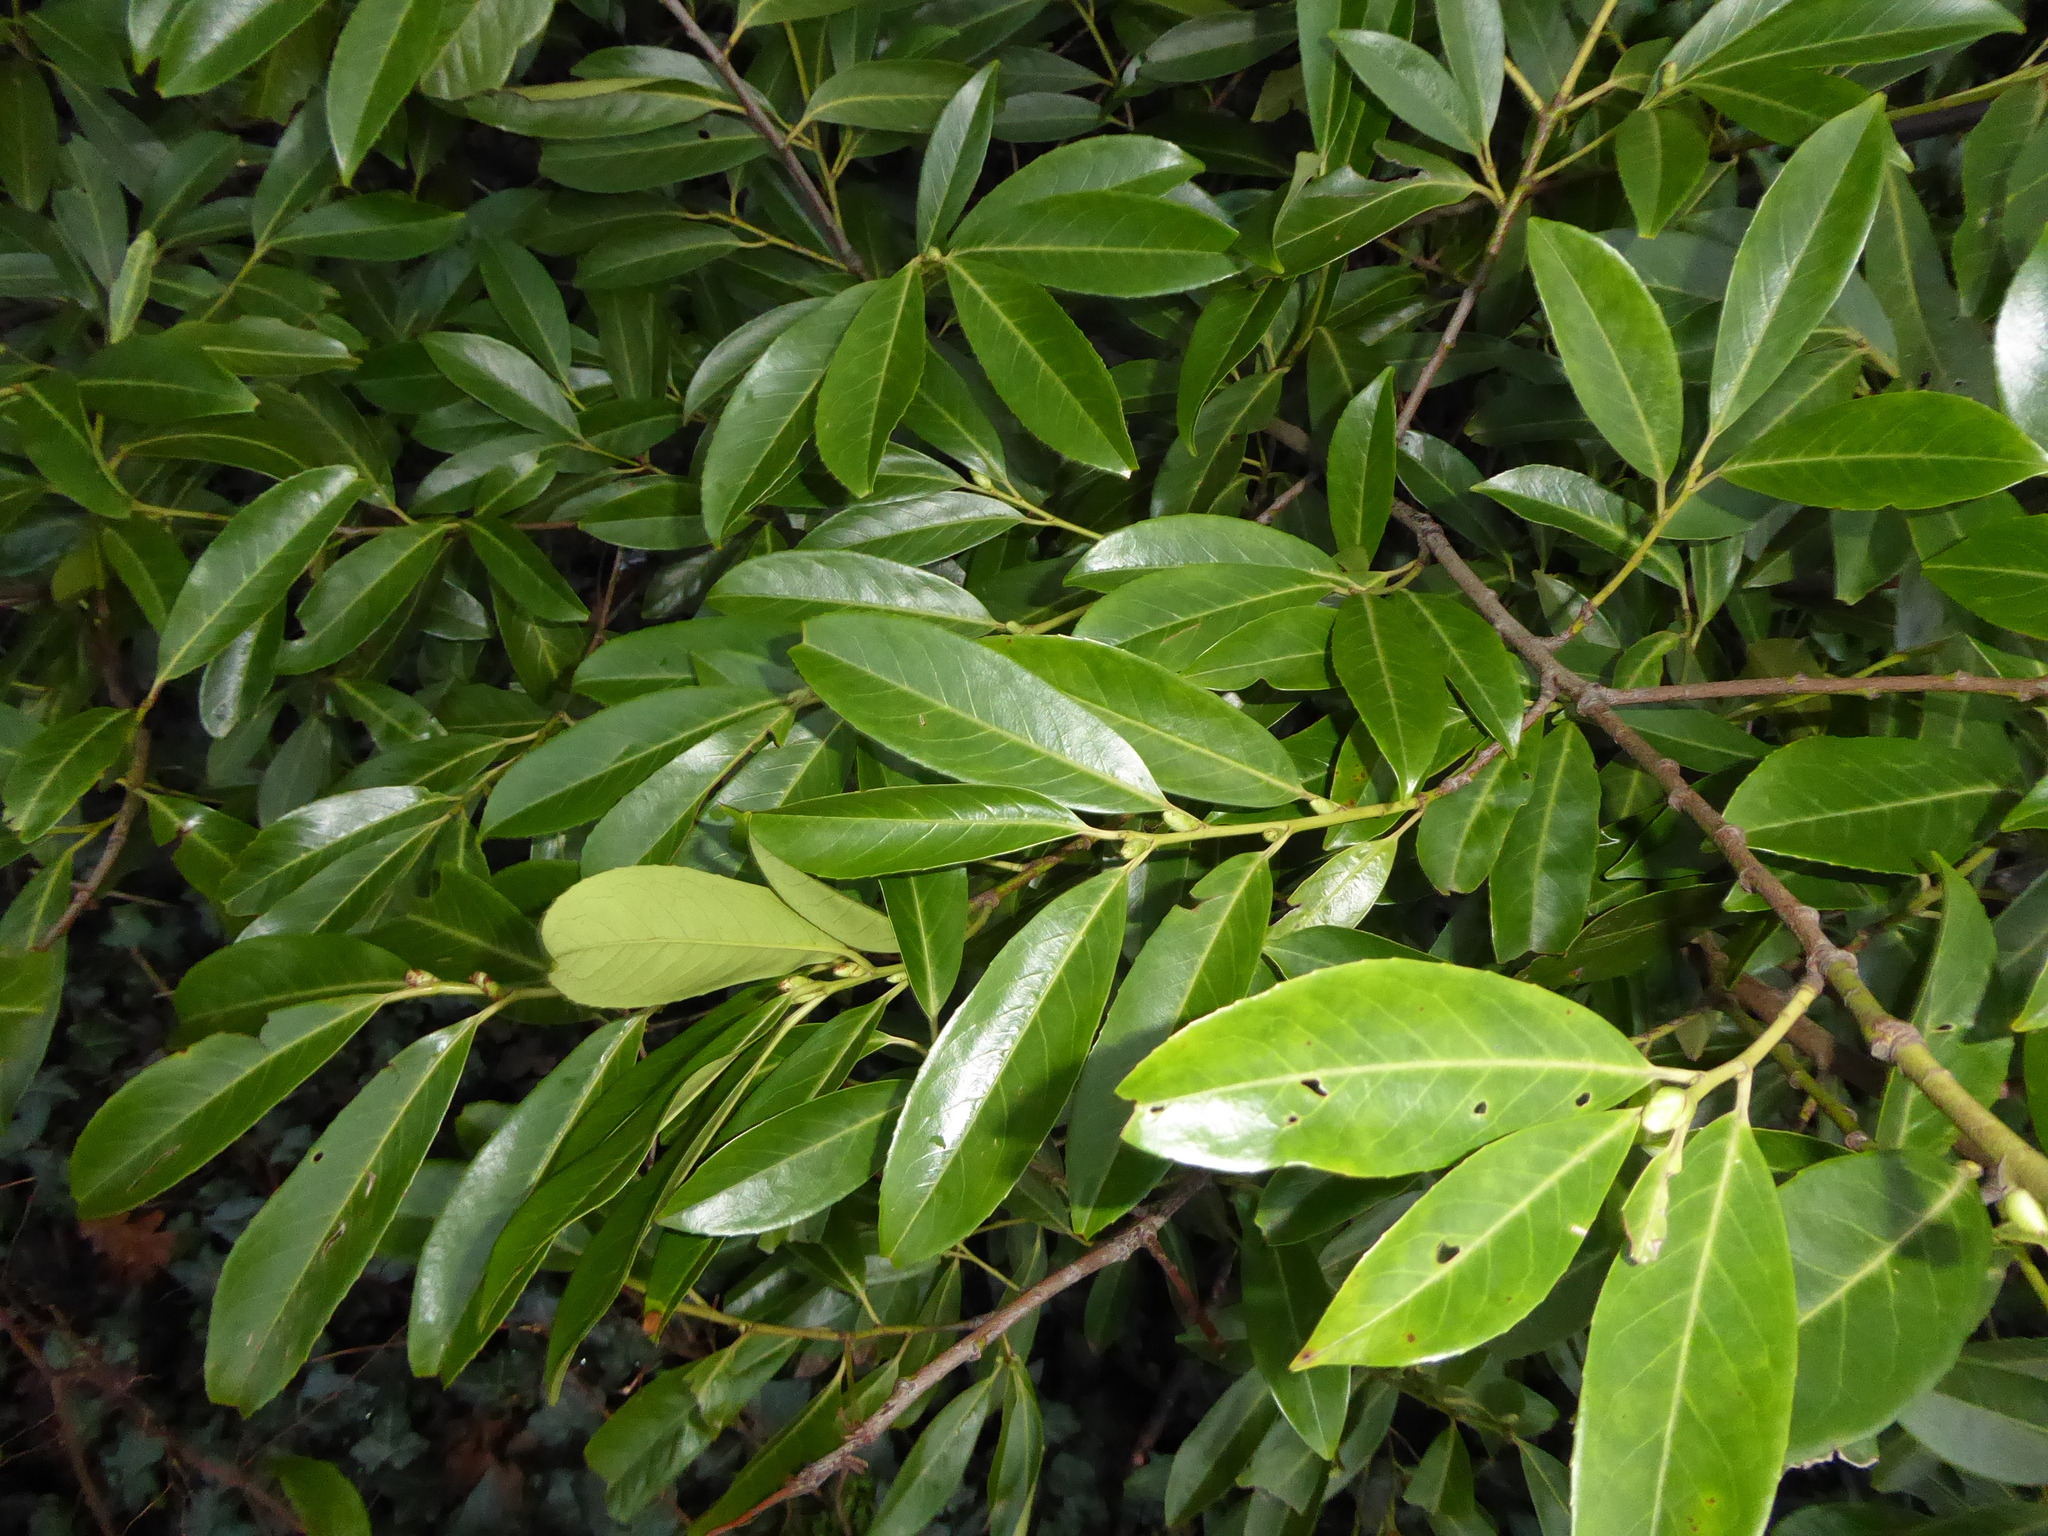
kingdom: Plantae
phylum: Tracheophyta
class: Magnoliopsida
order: Rosales
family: Rosaceae
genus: Prunus
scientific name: Prunus laurocerasus
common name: Cherry laurel
